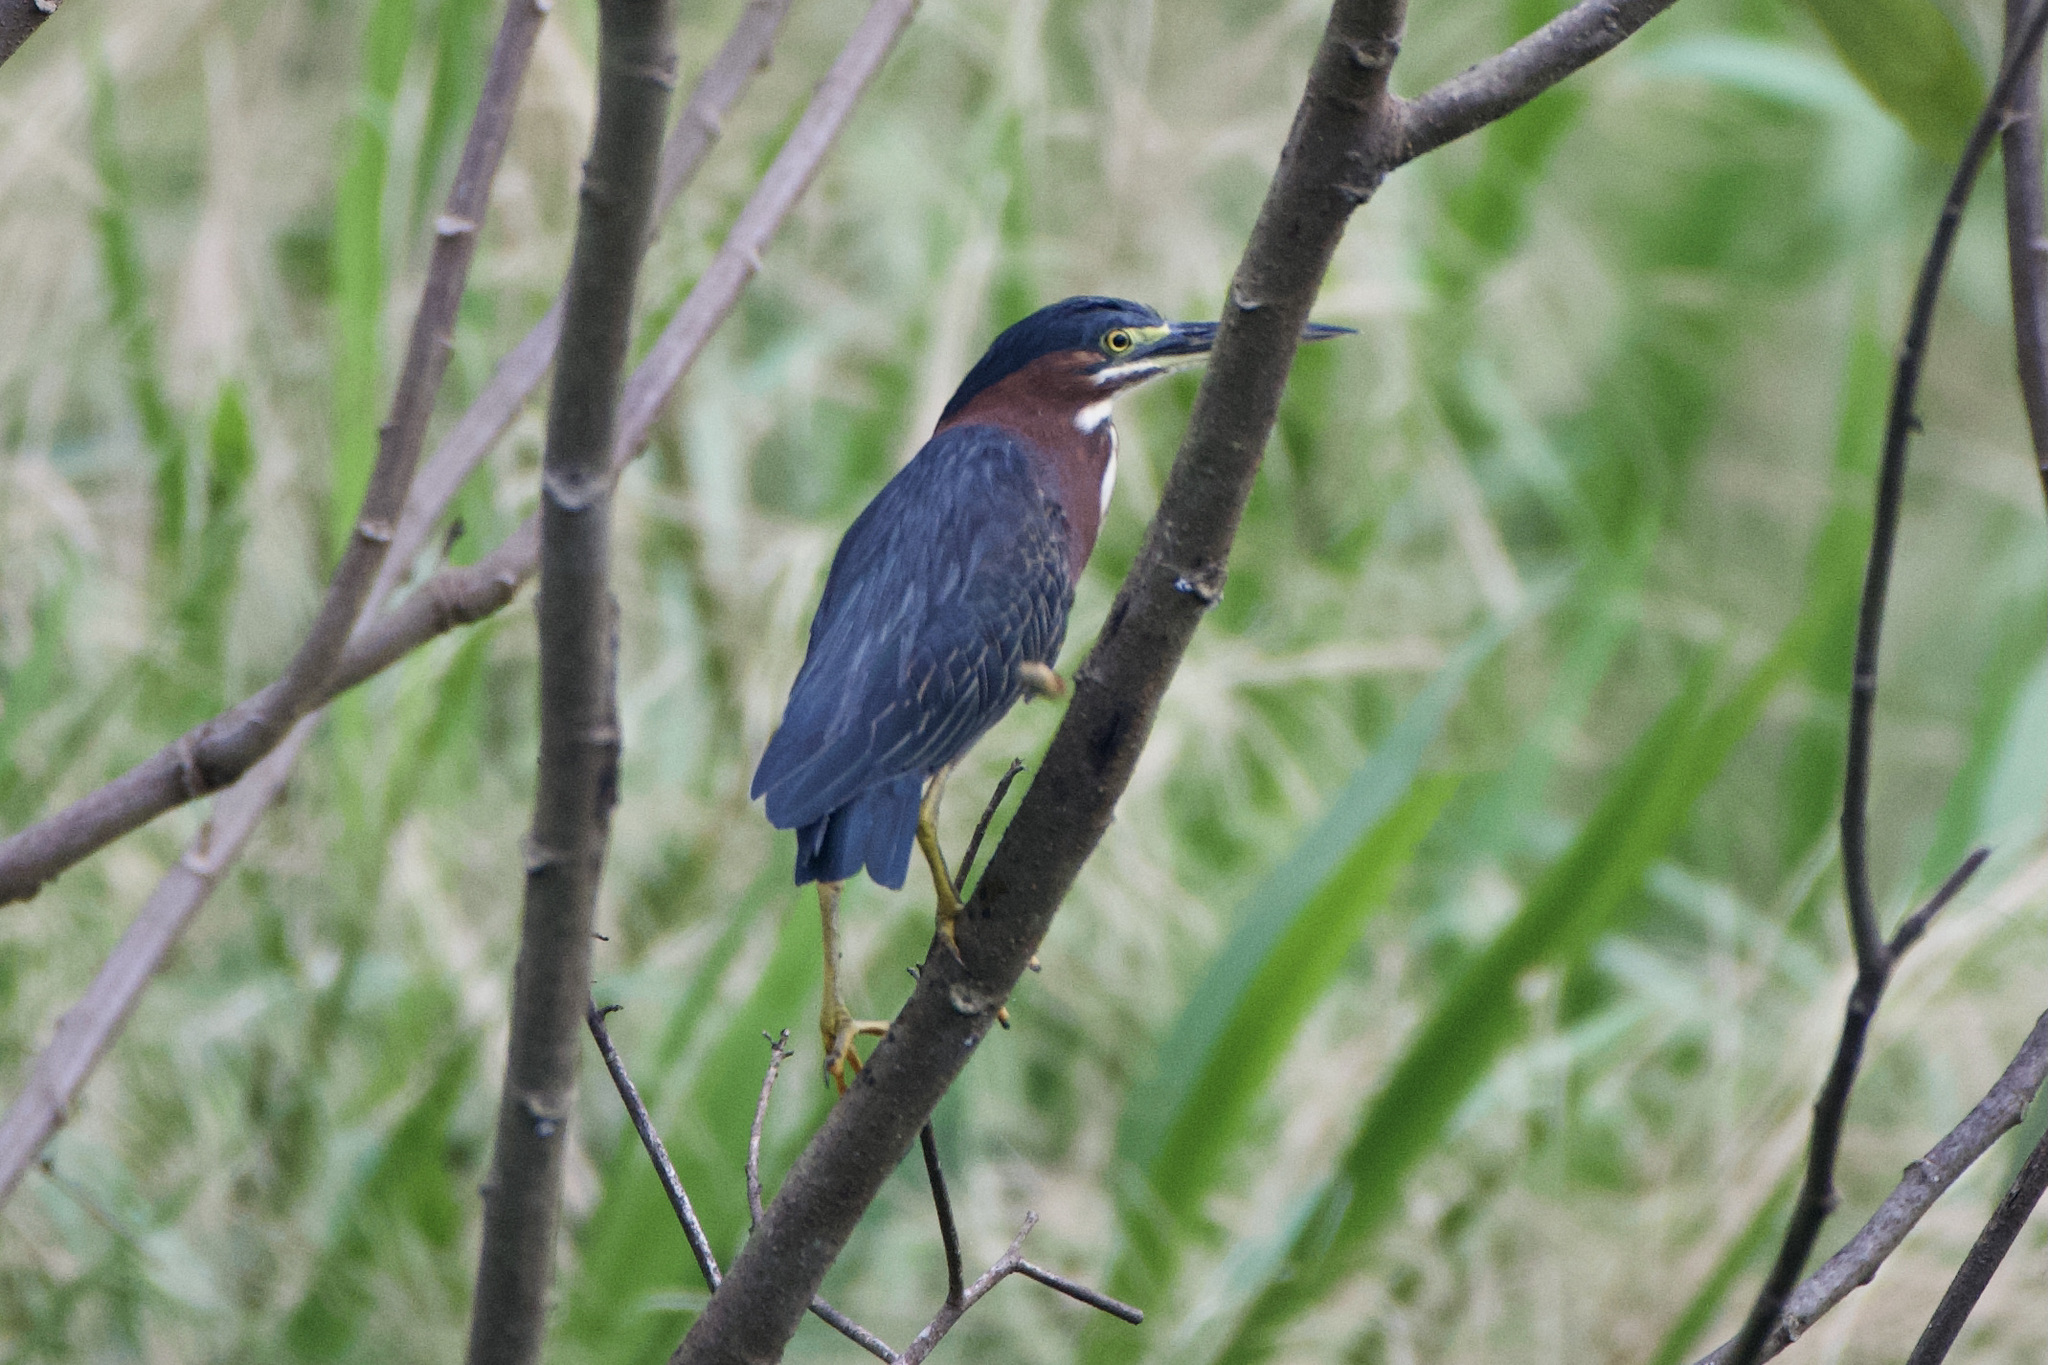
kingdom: Animalia
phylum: Chordata
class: Aves
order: Pelecaniformes
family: Ardeidae
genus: Butorides
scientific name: Butorides virescens
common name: Green heron
